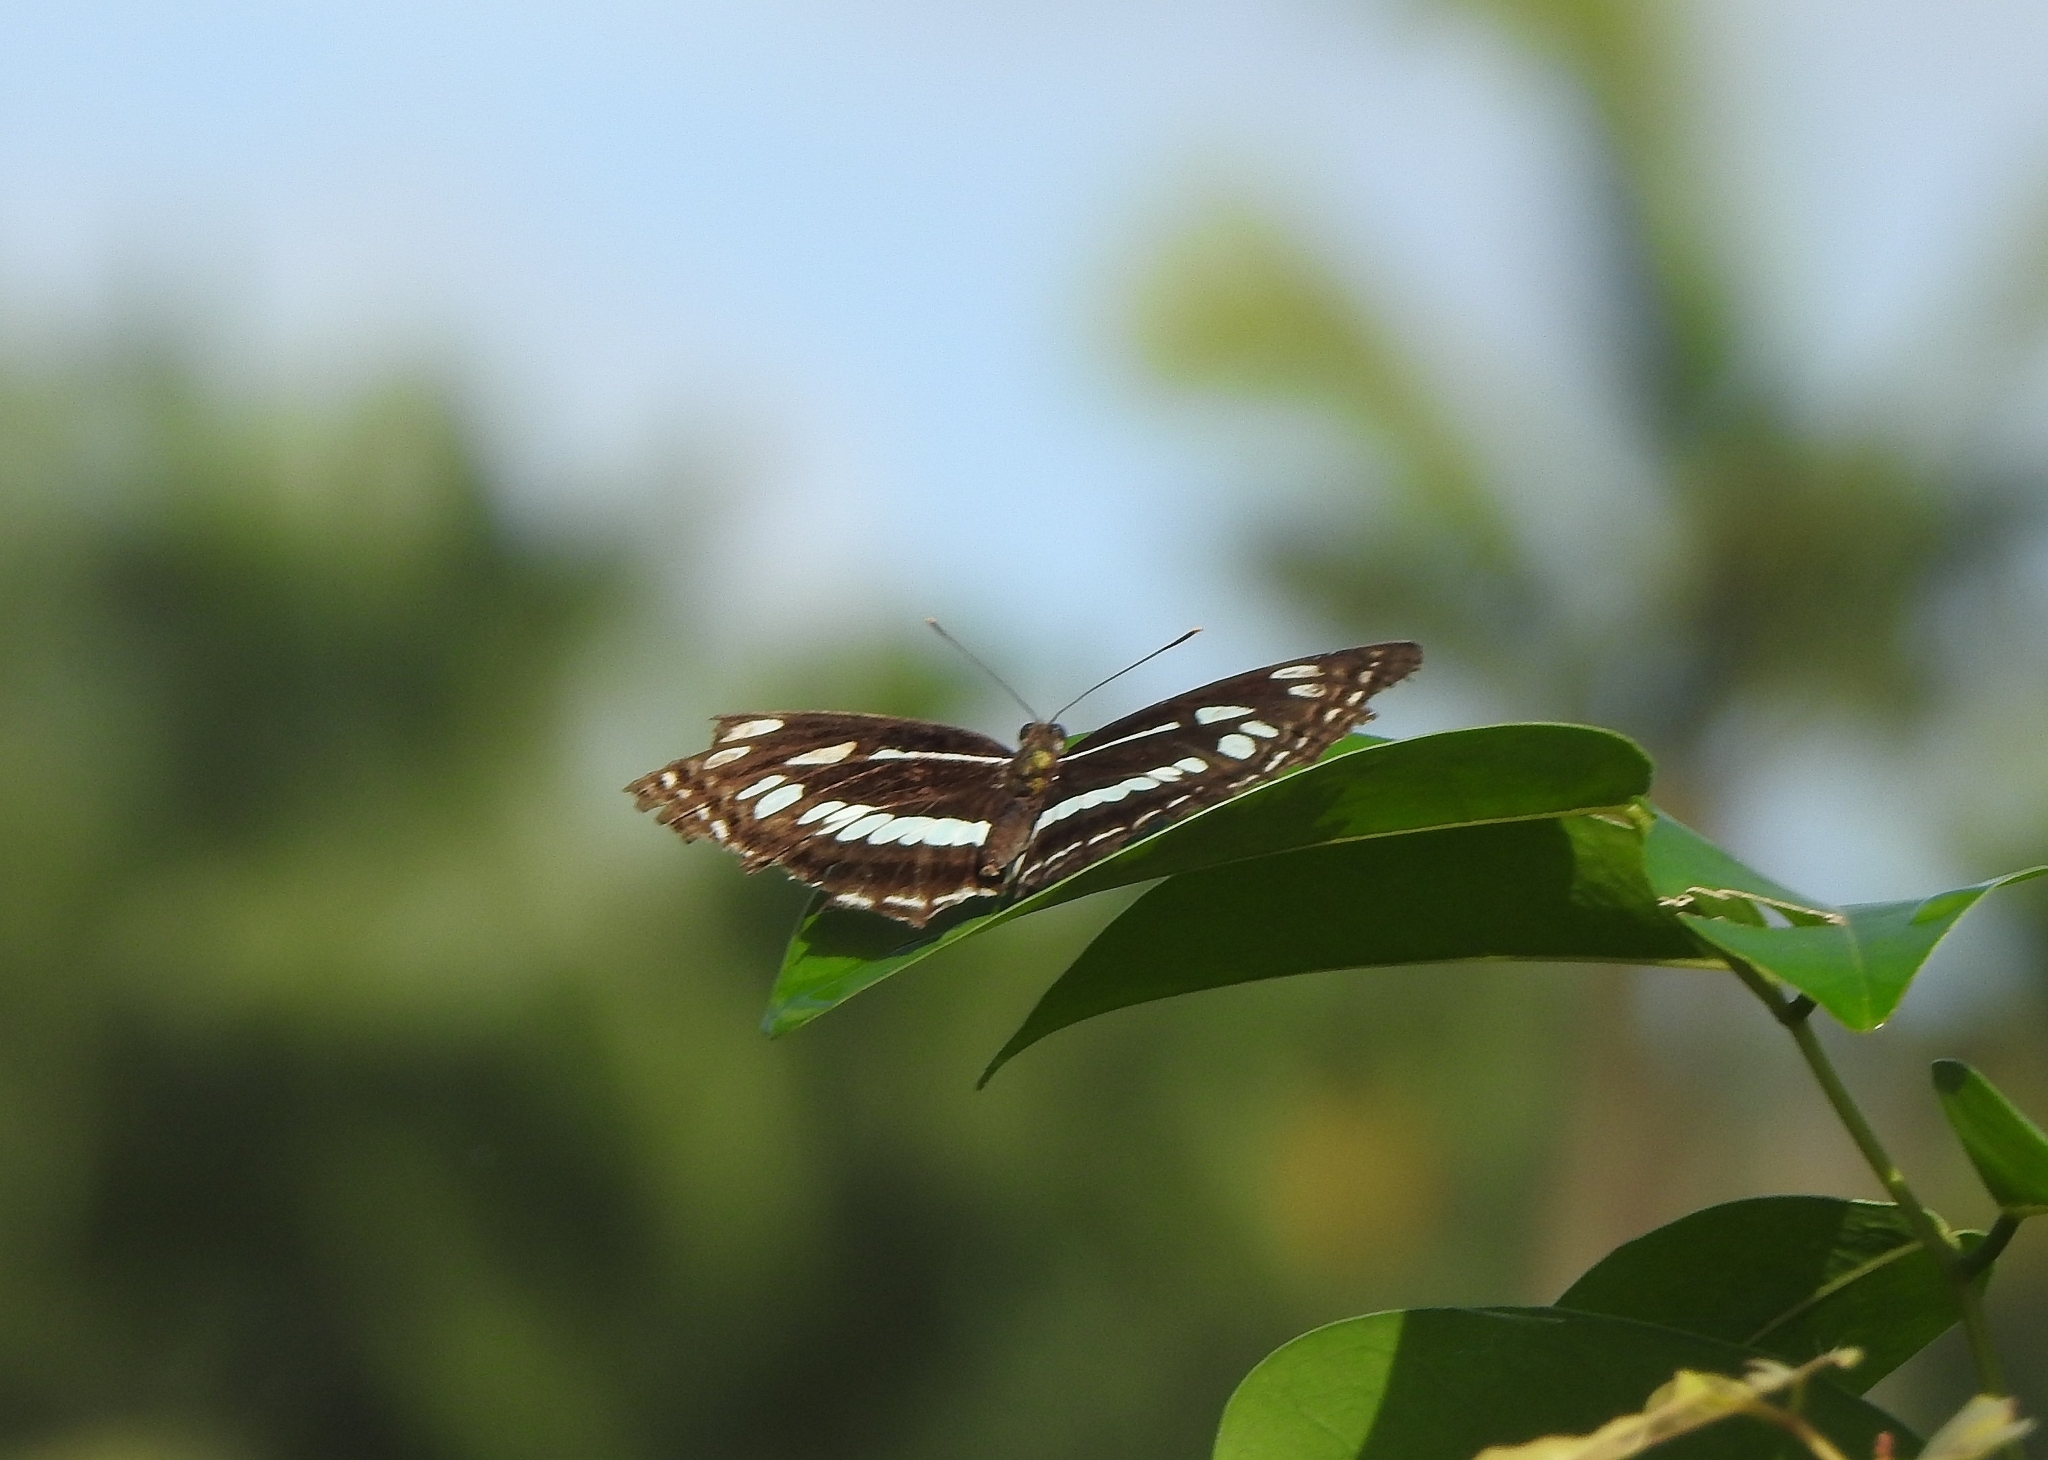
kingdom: Animalia
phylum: Arthropoda
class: Insecta
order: Lepidoptera
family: Nymphalidae
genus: Neptis
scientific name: Neptis jumbah
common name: Chestnut-streaked sailer
